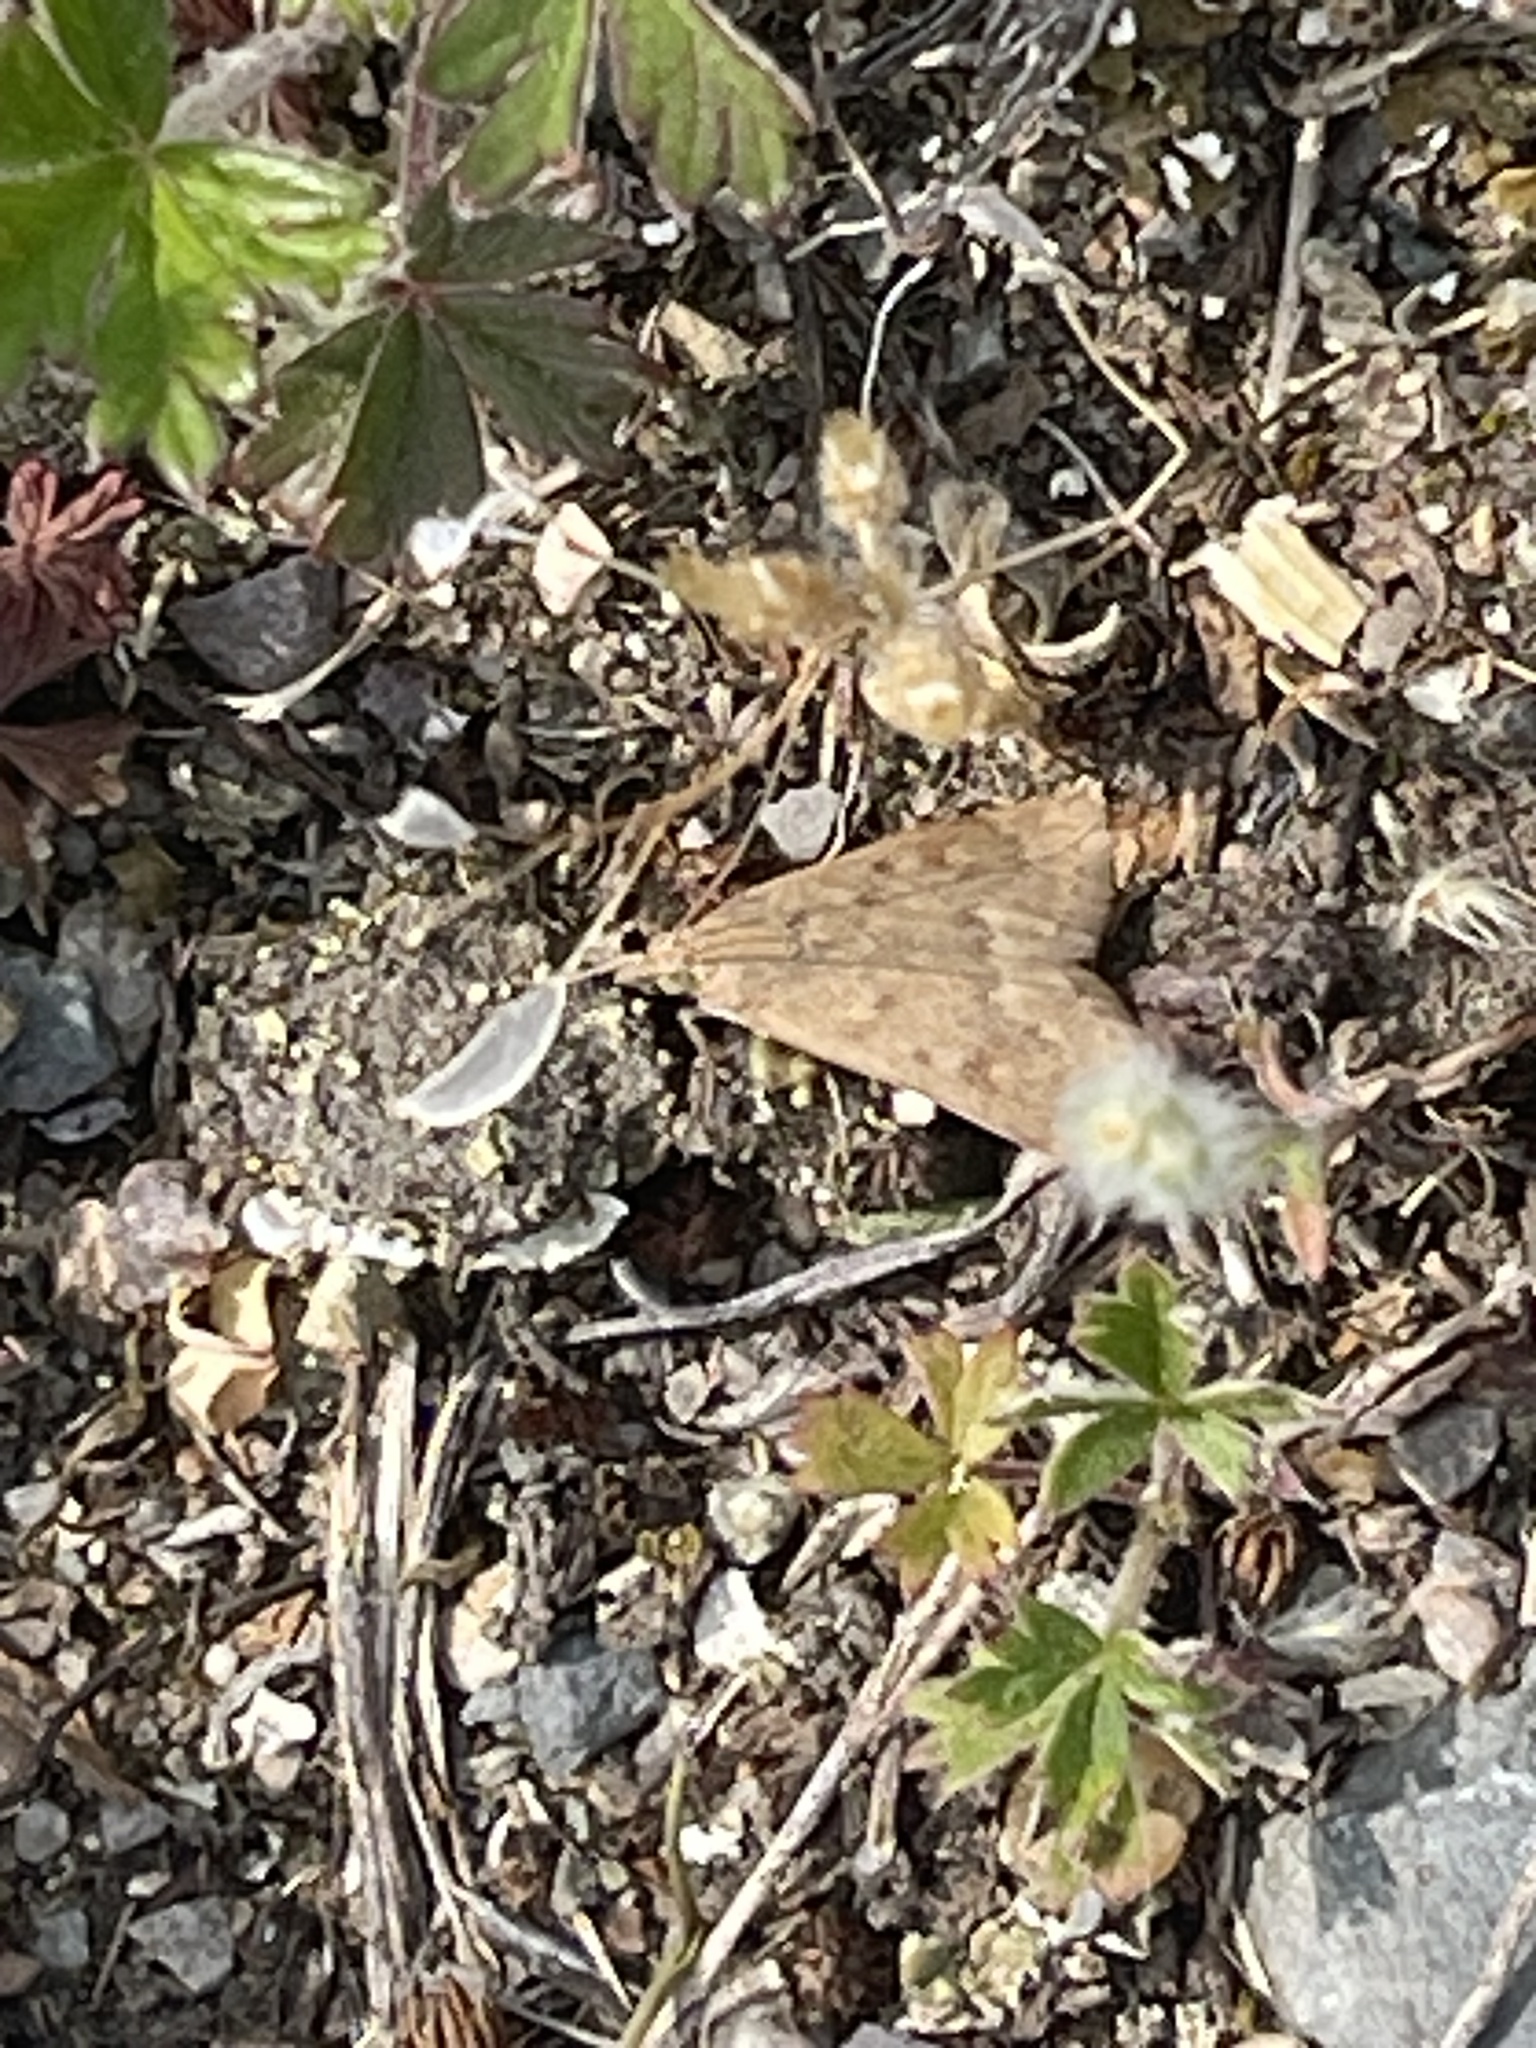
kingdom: Animalia
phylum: Arthropoda
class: Insecta
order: Lepidoptera
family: Crambidae
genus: Achyra
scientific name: Achyra rantalis
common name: Garden webworm
